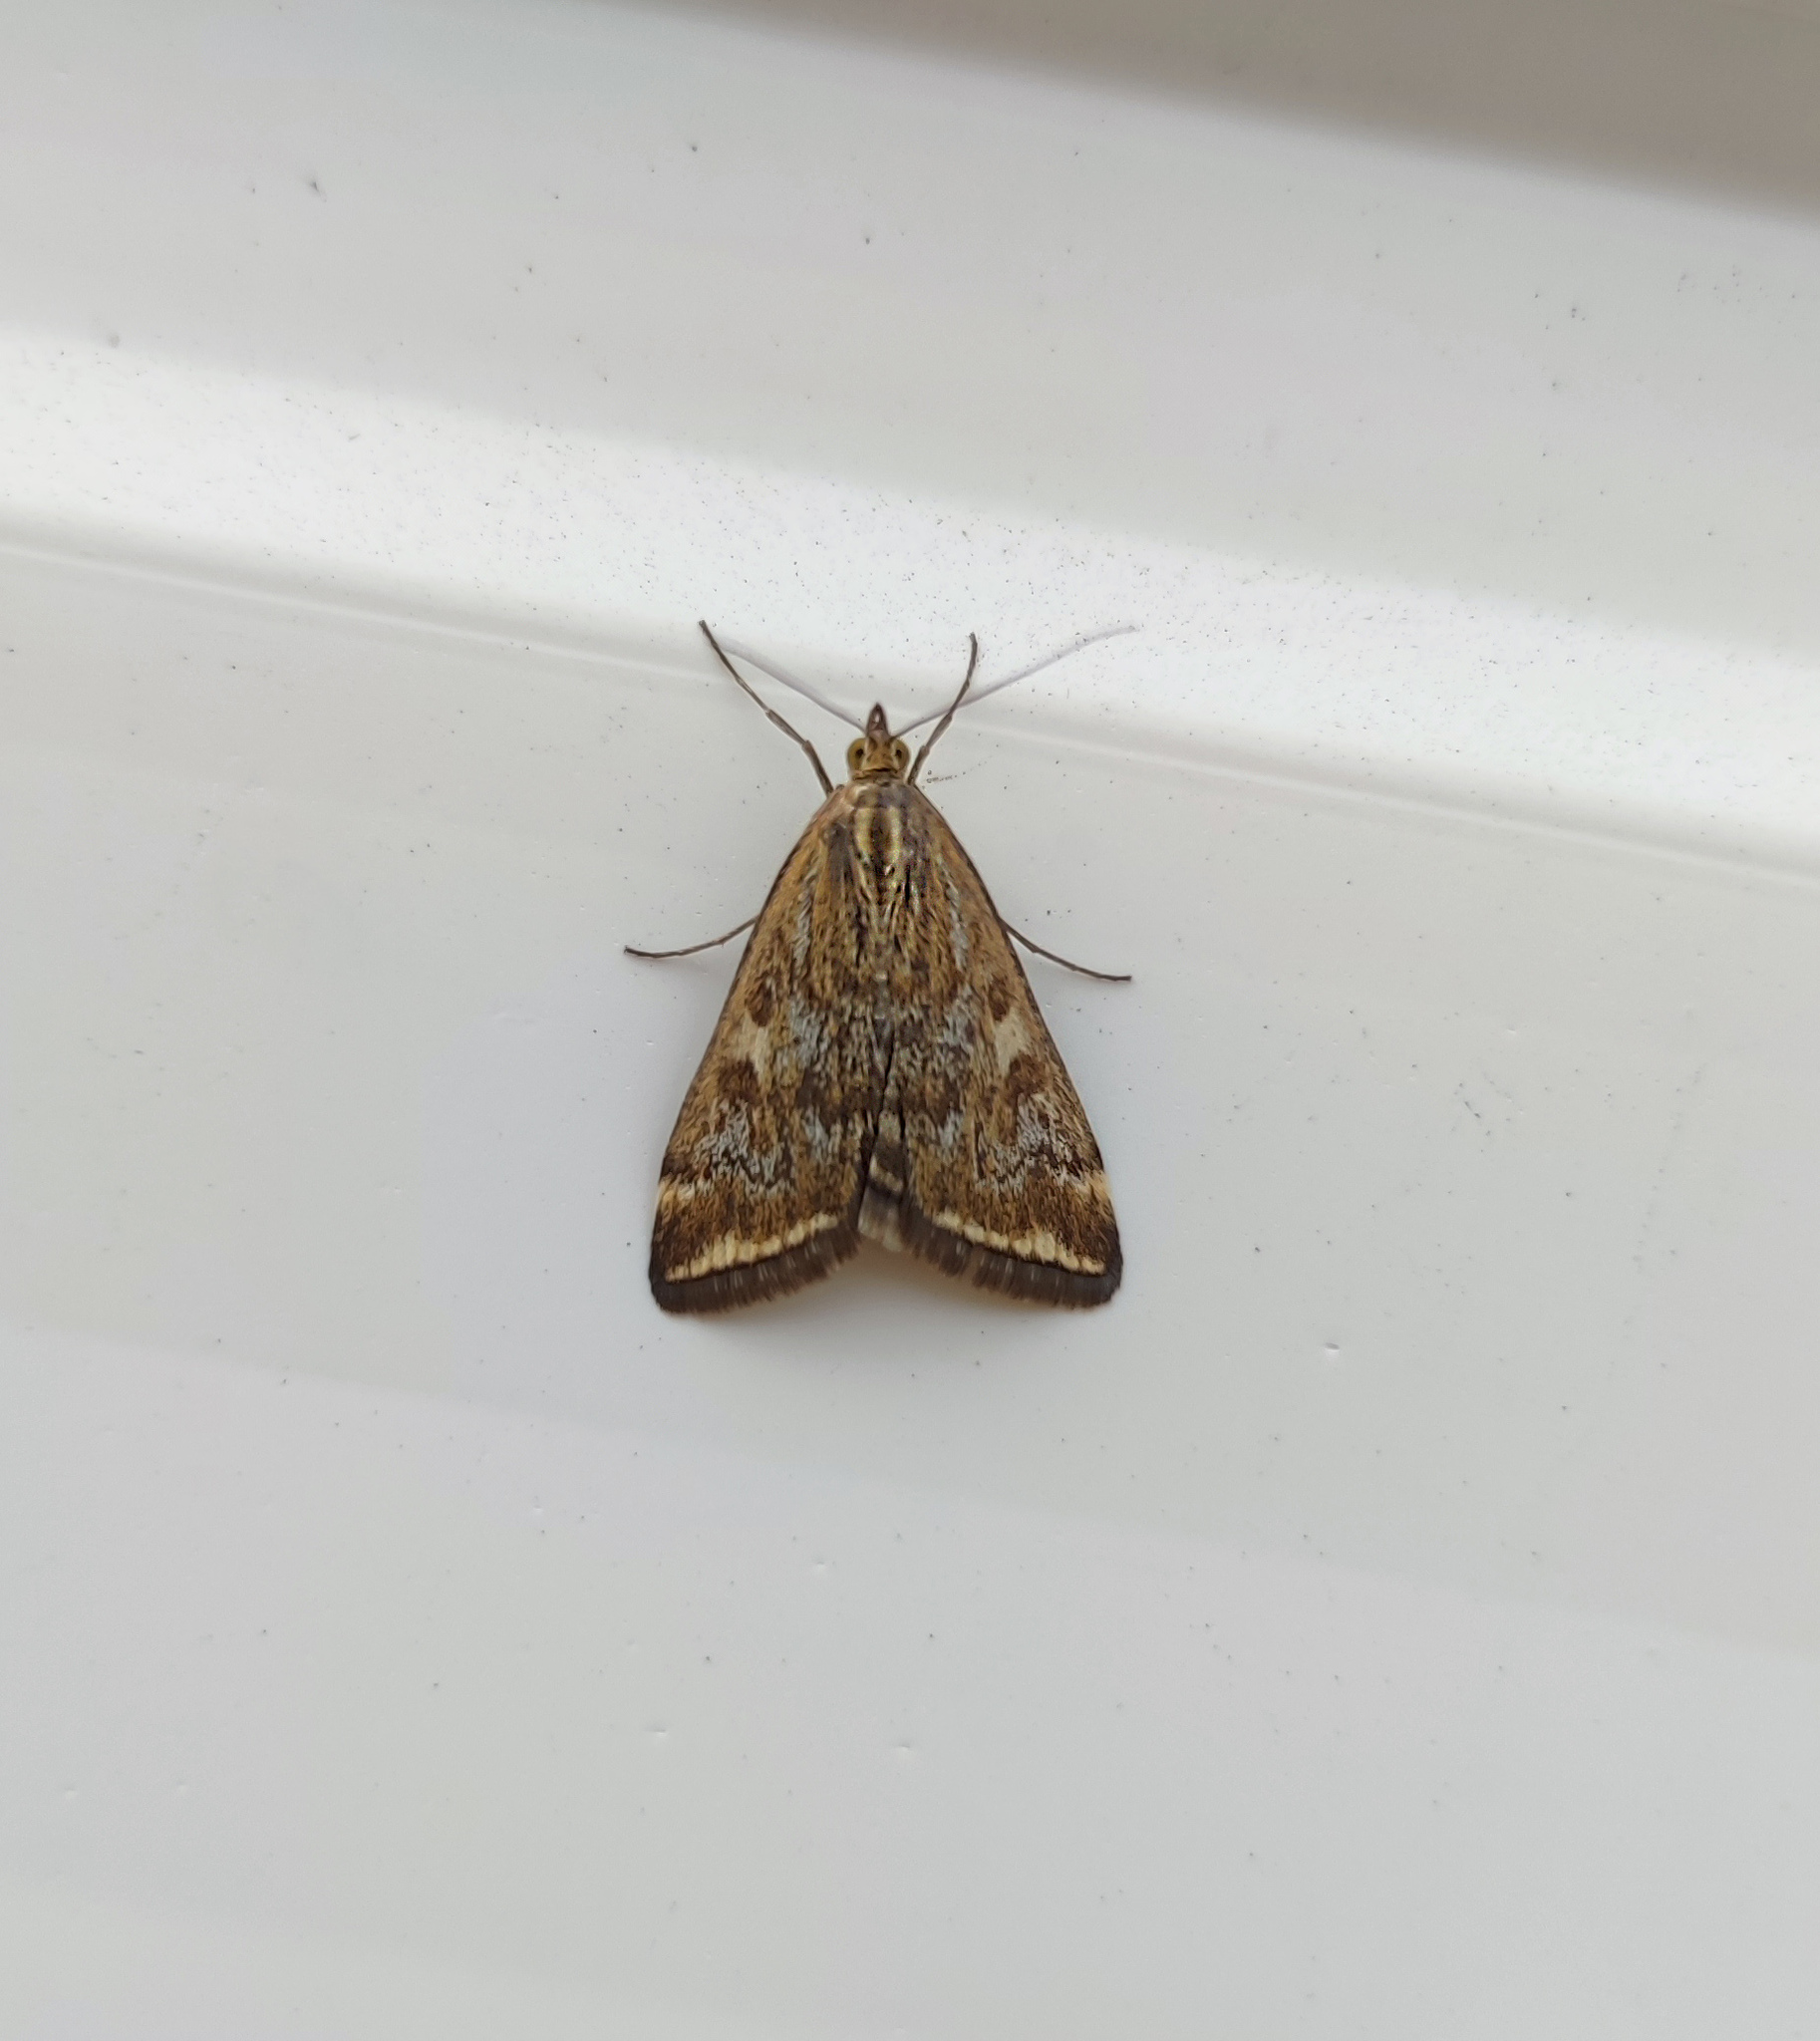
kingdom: Animalia
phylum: Arthropoda
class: Insecta
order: Lepidoptera
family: Crambidae
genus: Loxostege
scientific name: Loxostege sticticalis
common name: Crambid moth
